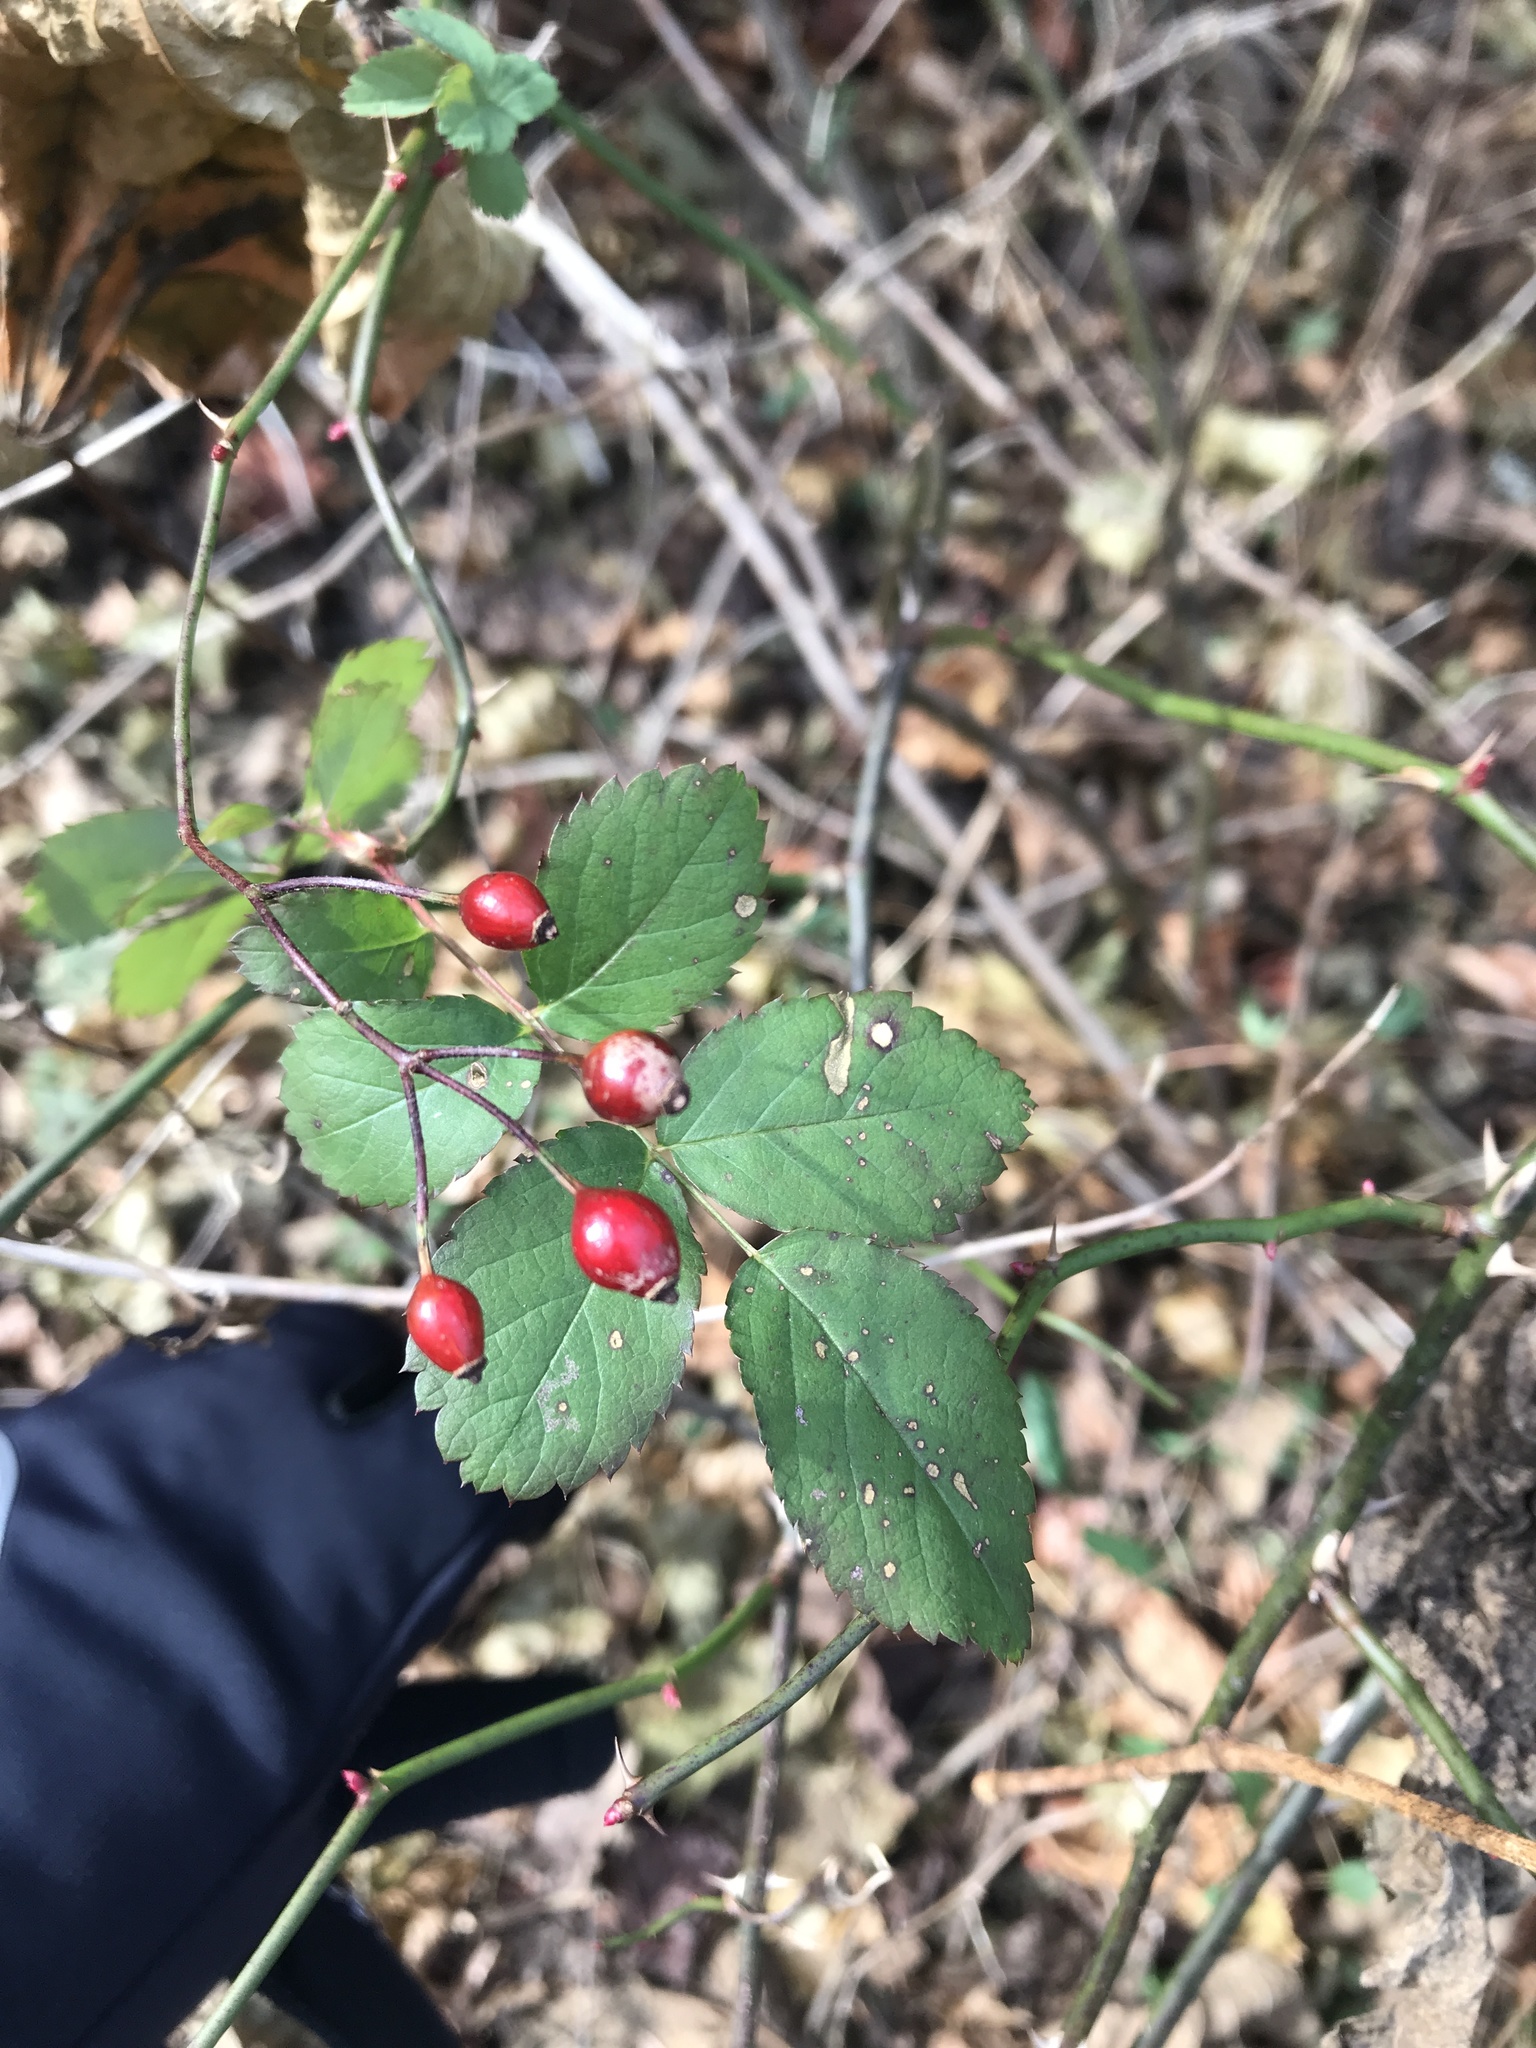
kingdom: Plantae
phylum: Tracheophyta
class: Magnoliopsida
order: Rosales
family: Rosaceae
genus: Rosa
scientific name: Rosa multiflora
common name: Multiflora rose
